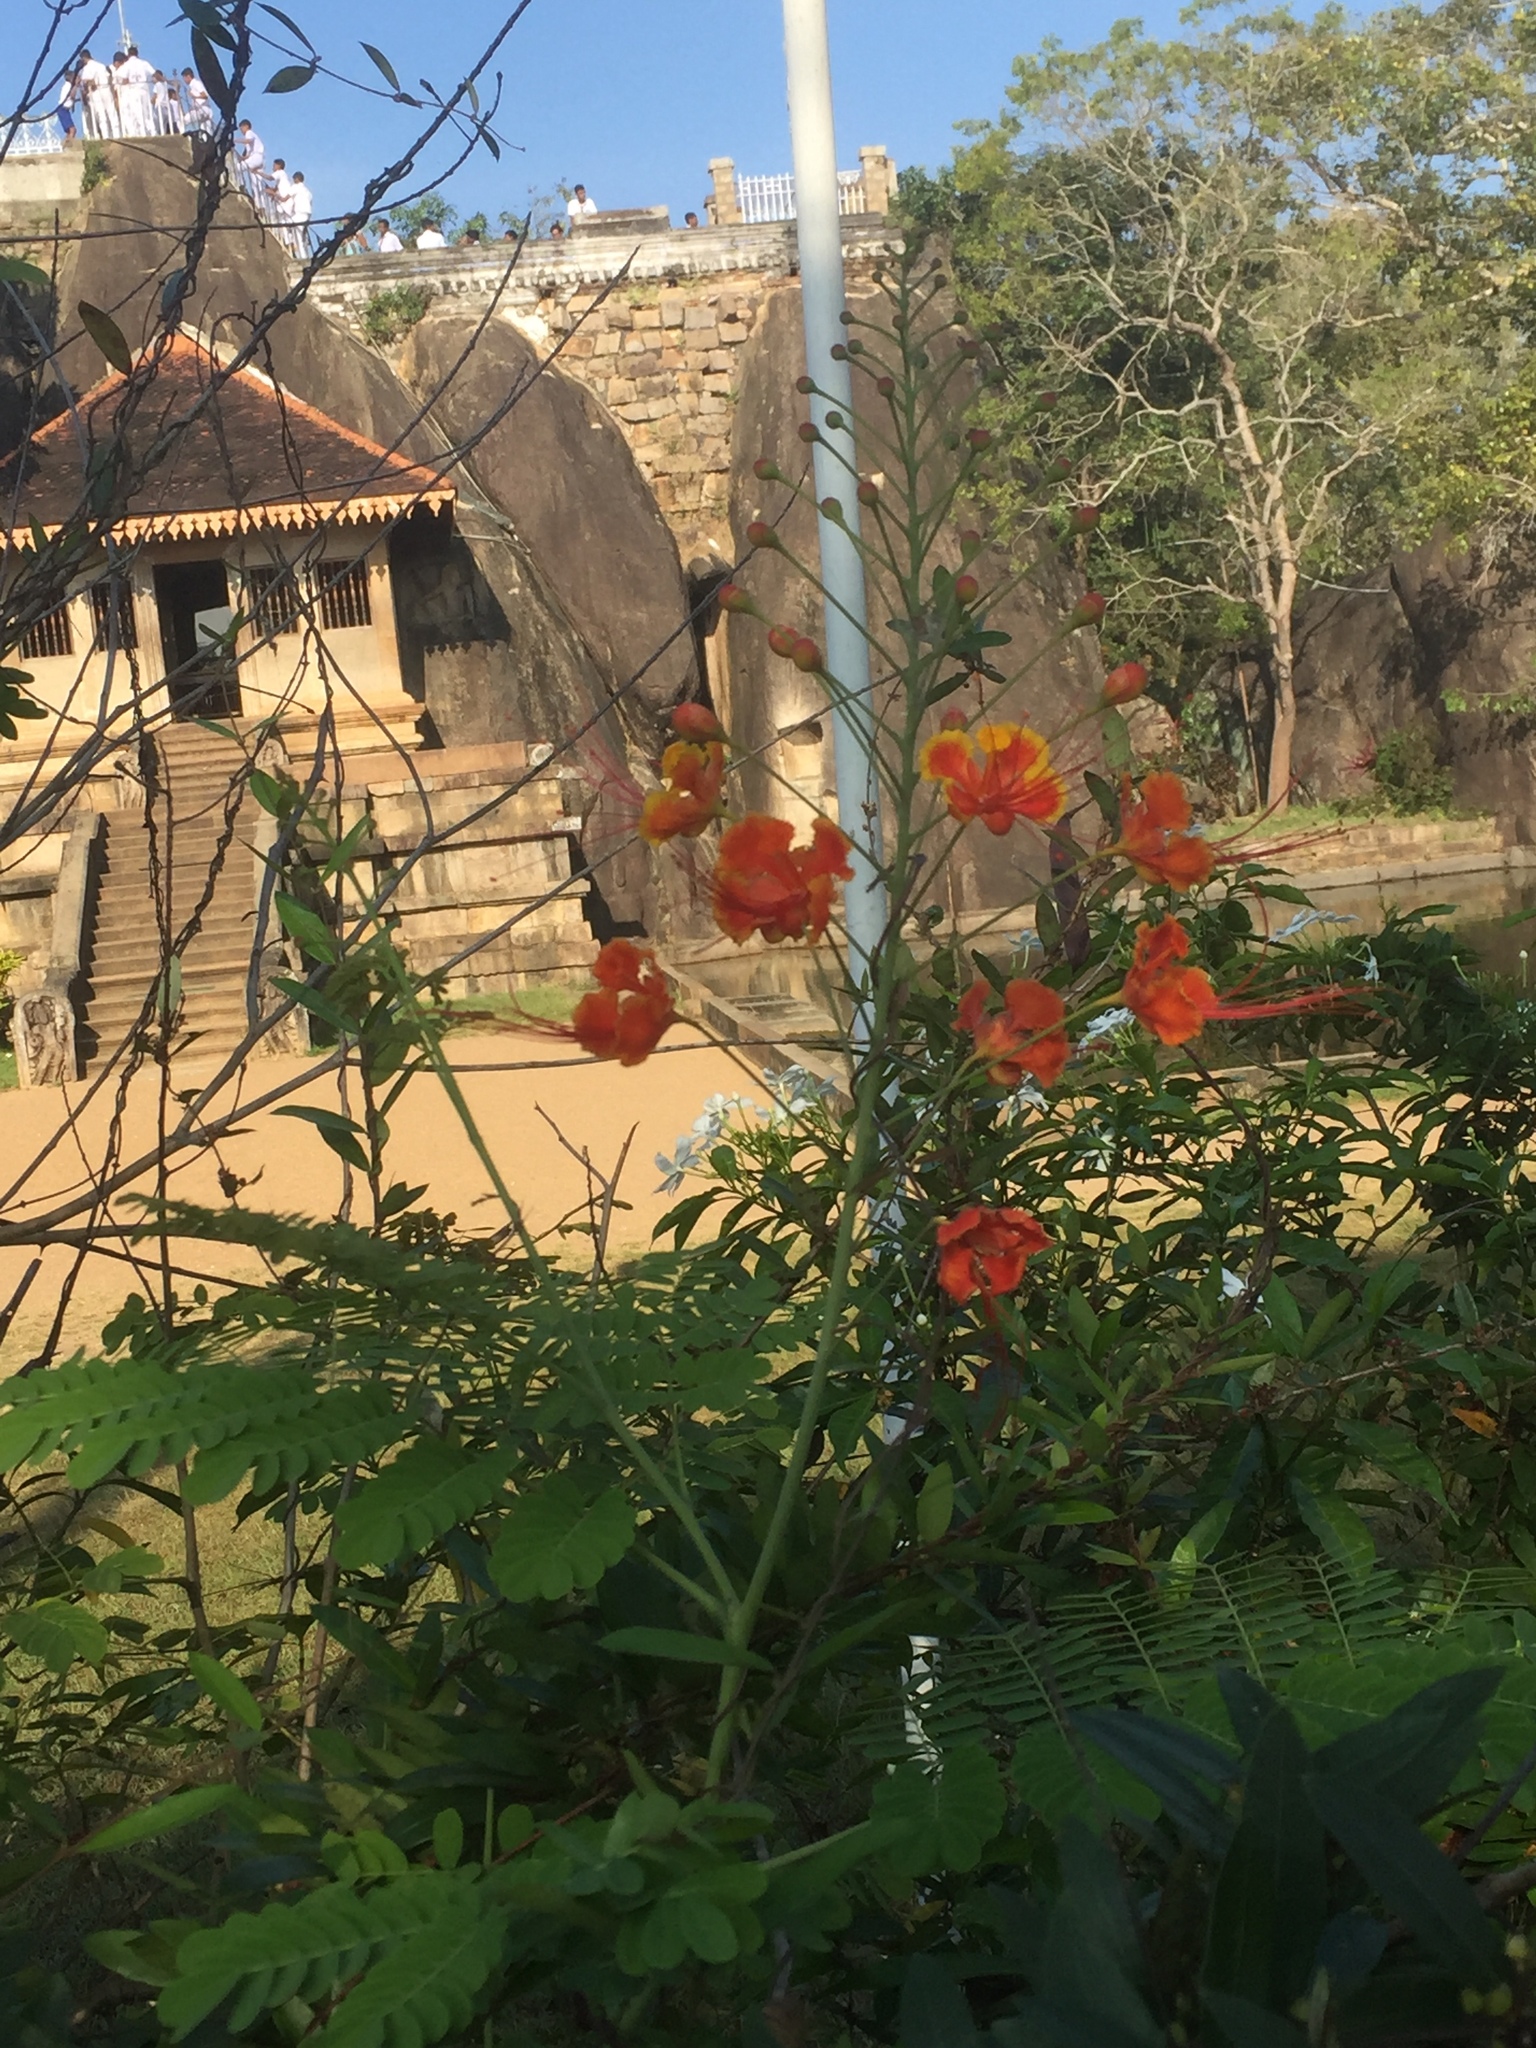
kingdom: Plantae
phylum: Tracheophyta
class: Magnoliopsida
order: Fabales
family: Fabaceae
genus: Caesalpinia
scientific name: Caesalpinia pulcherrima
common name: Pride-of-barbados
